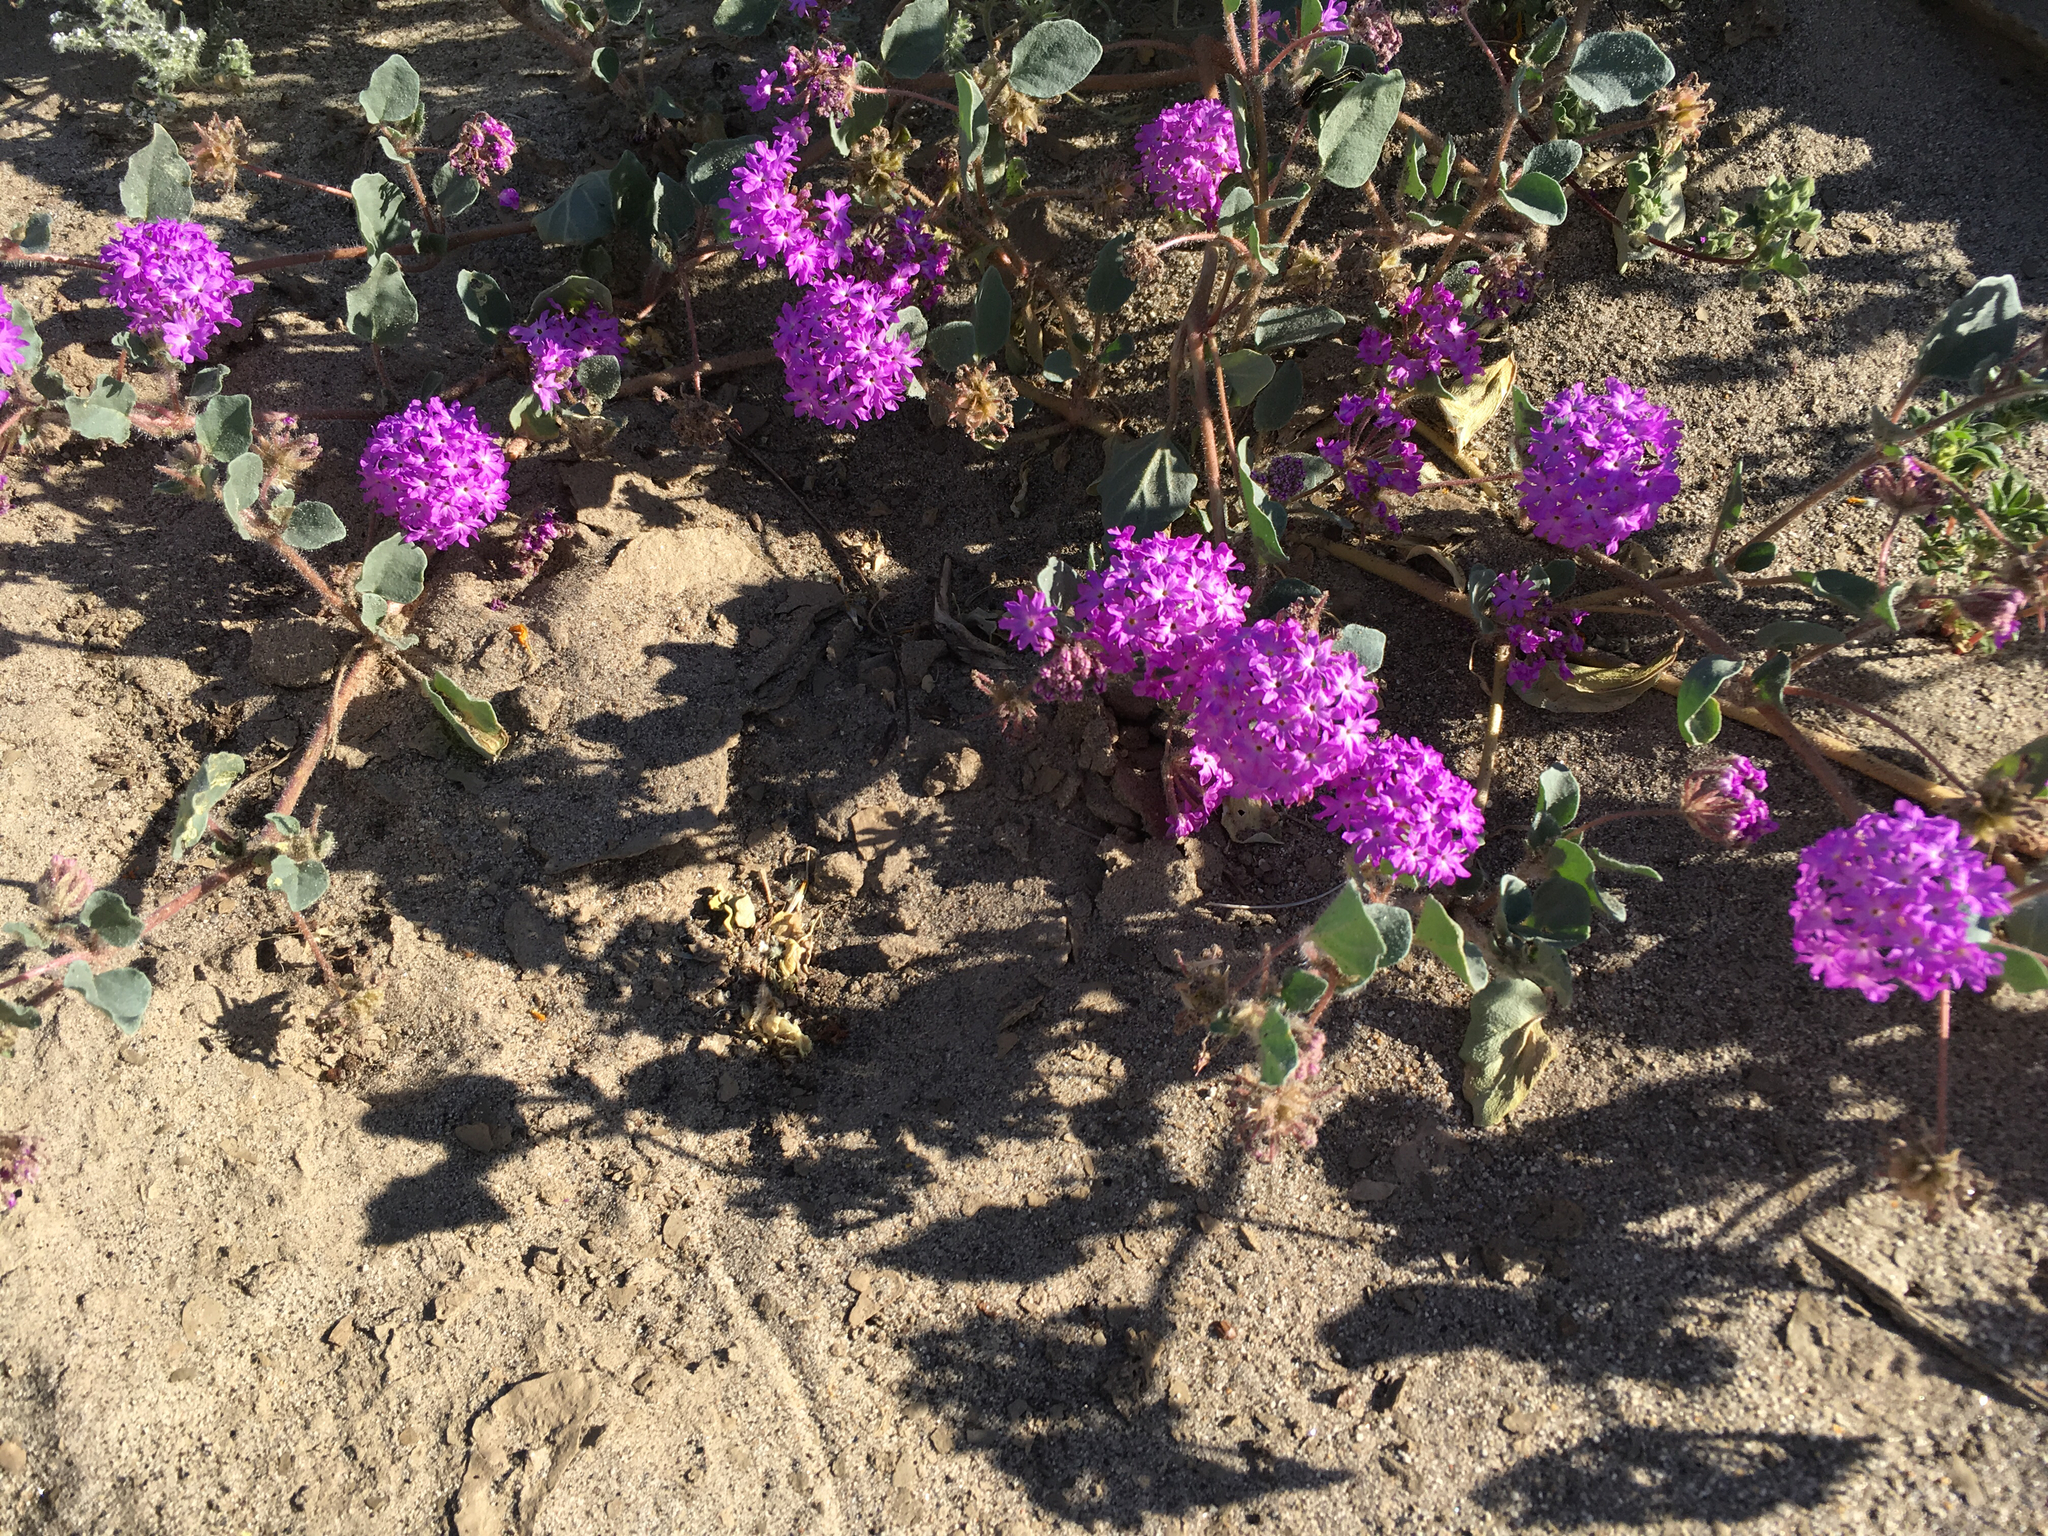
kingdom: Plantae
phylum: Tracheophyta
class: Magnoliopsida
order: Caryophyllales
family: Nyctaginaceae
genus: Abronia
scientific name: Abronia villosa
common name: Desert sand-verbena
